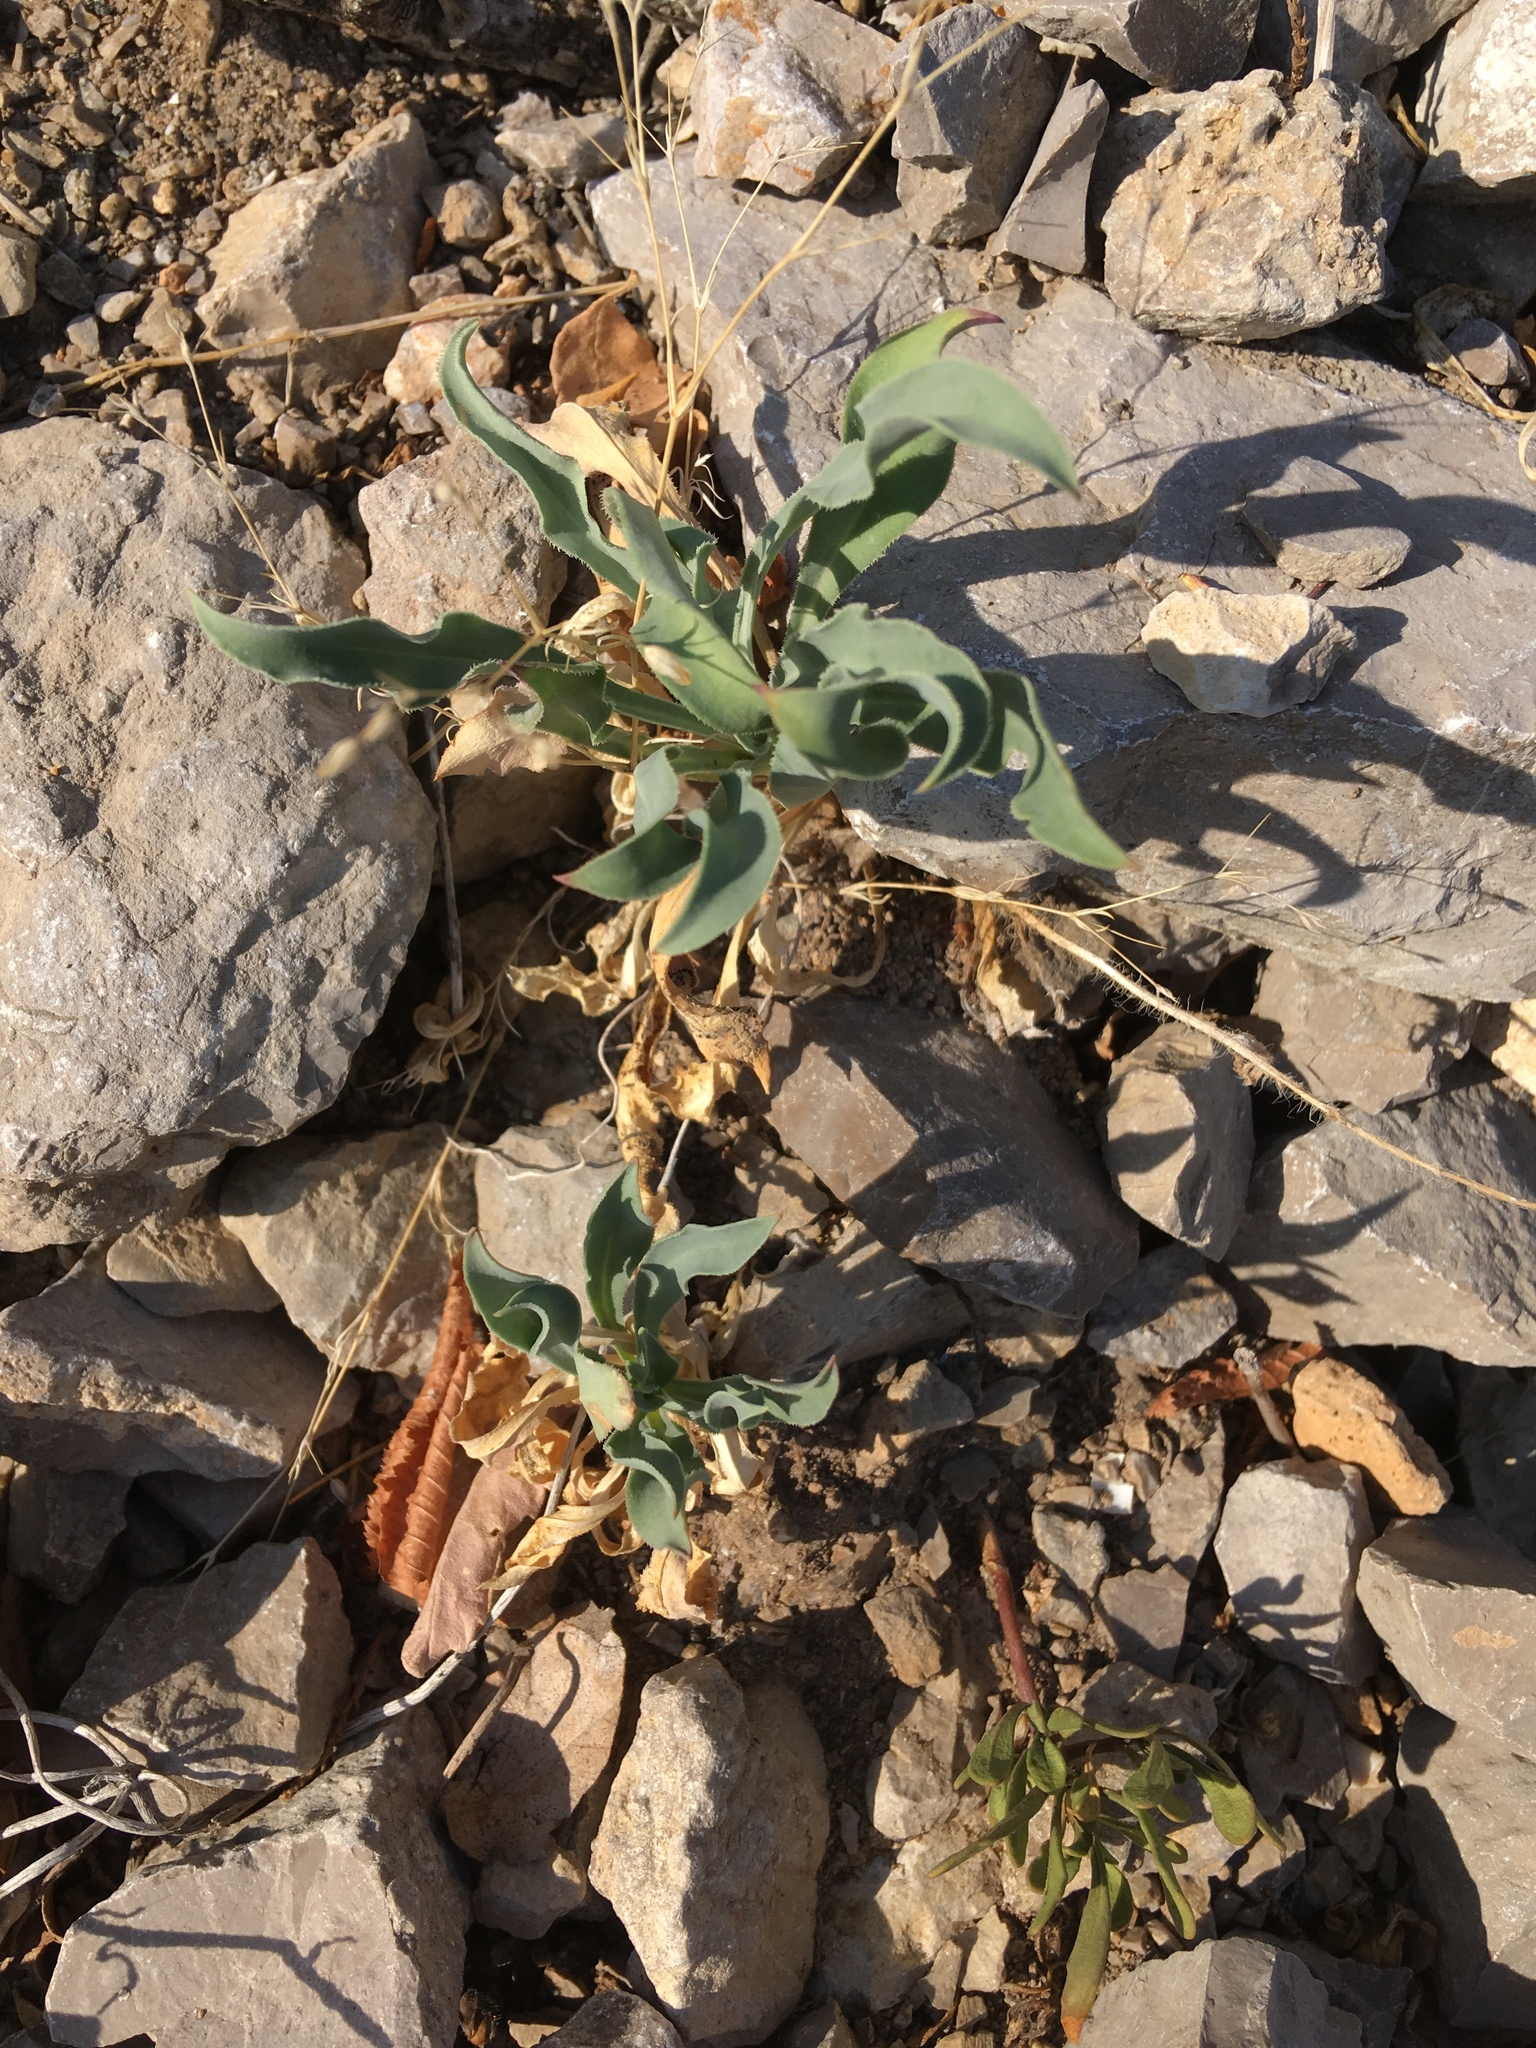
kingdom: Plantae
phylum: Tracheophyta
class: Liliopsida
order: Asparagales
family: Asparagaceae
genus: Bellevalia
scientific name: Bellevalia speciosa
